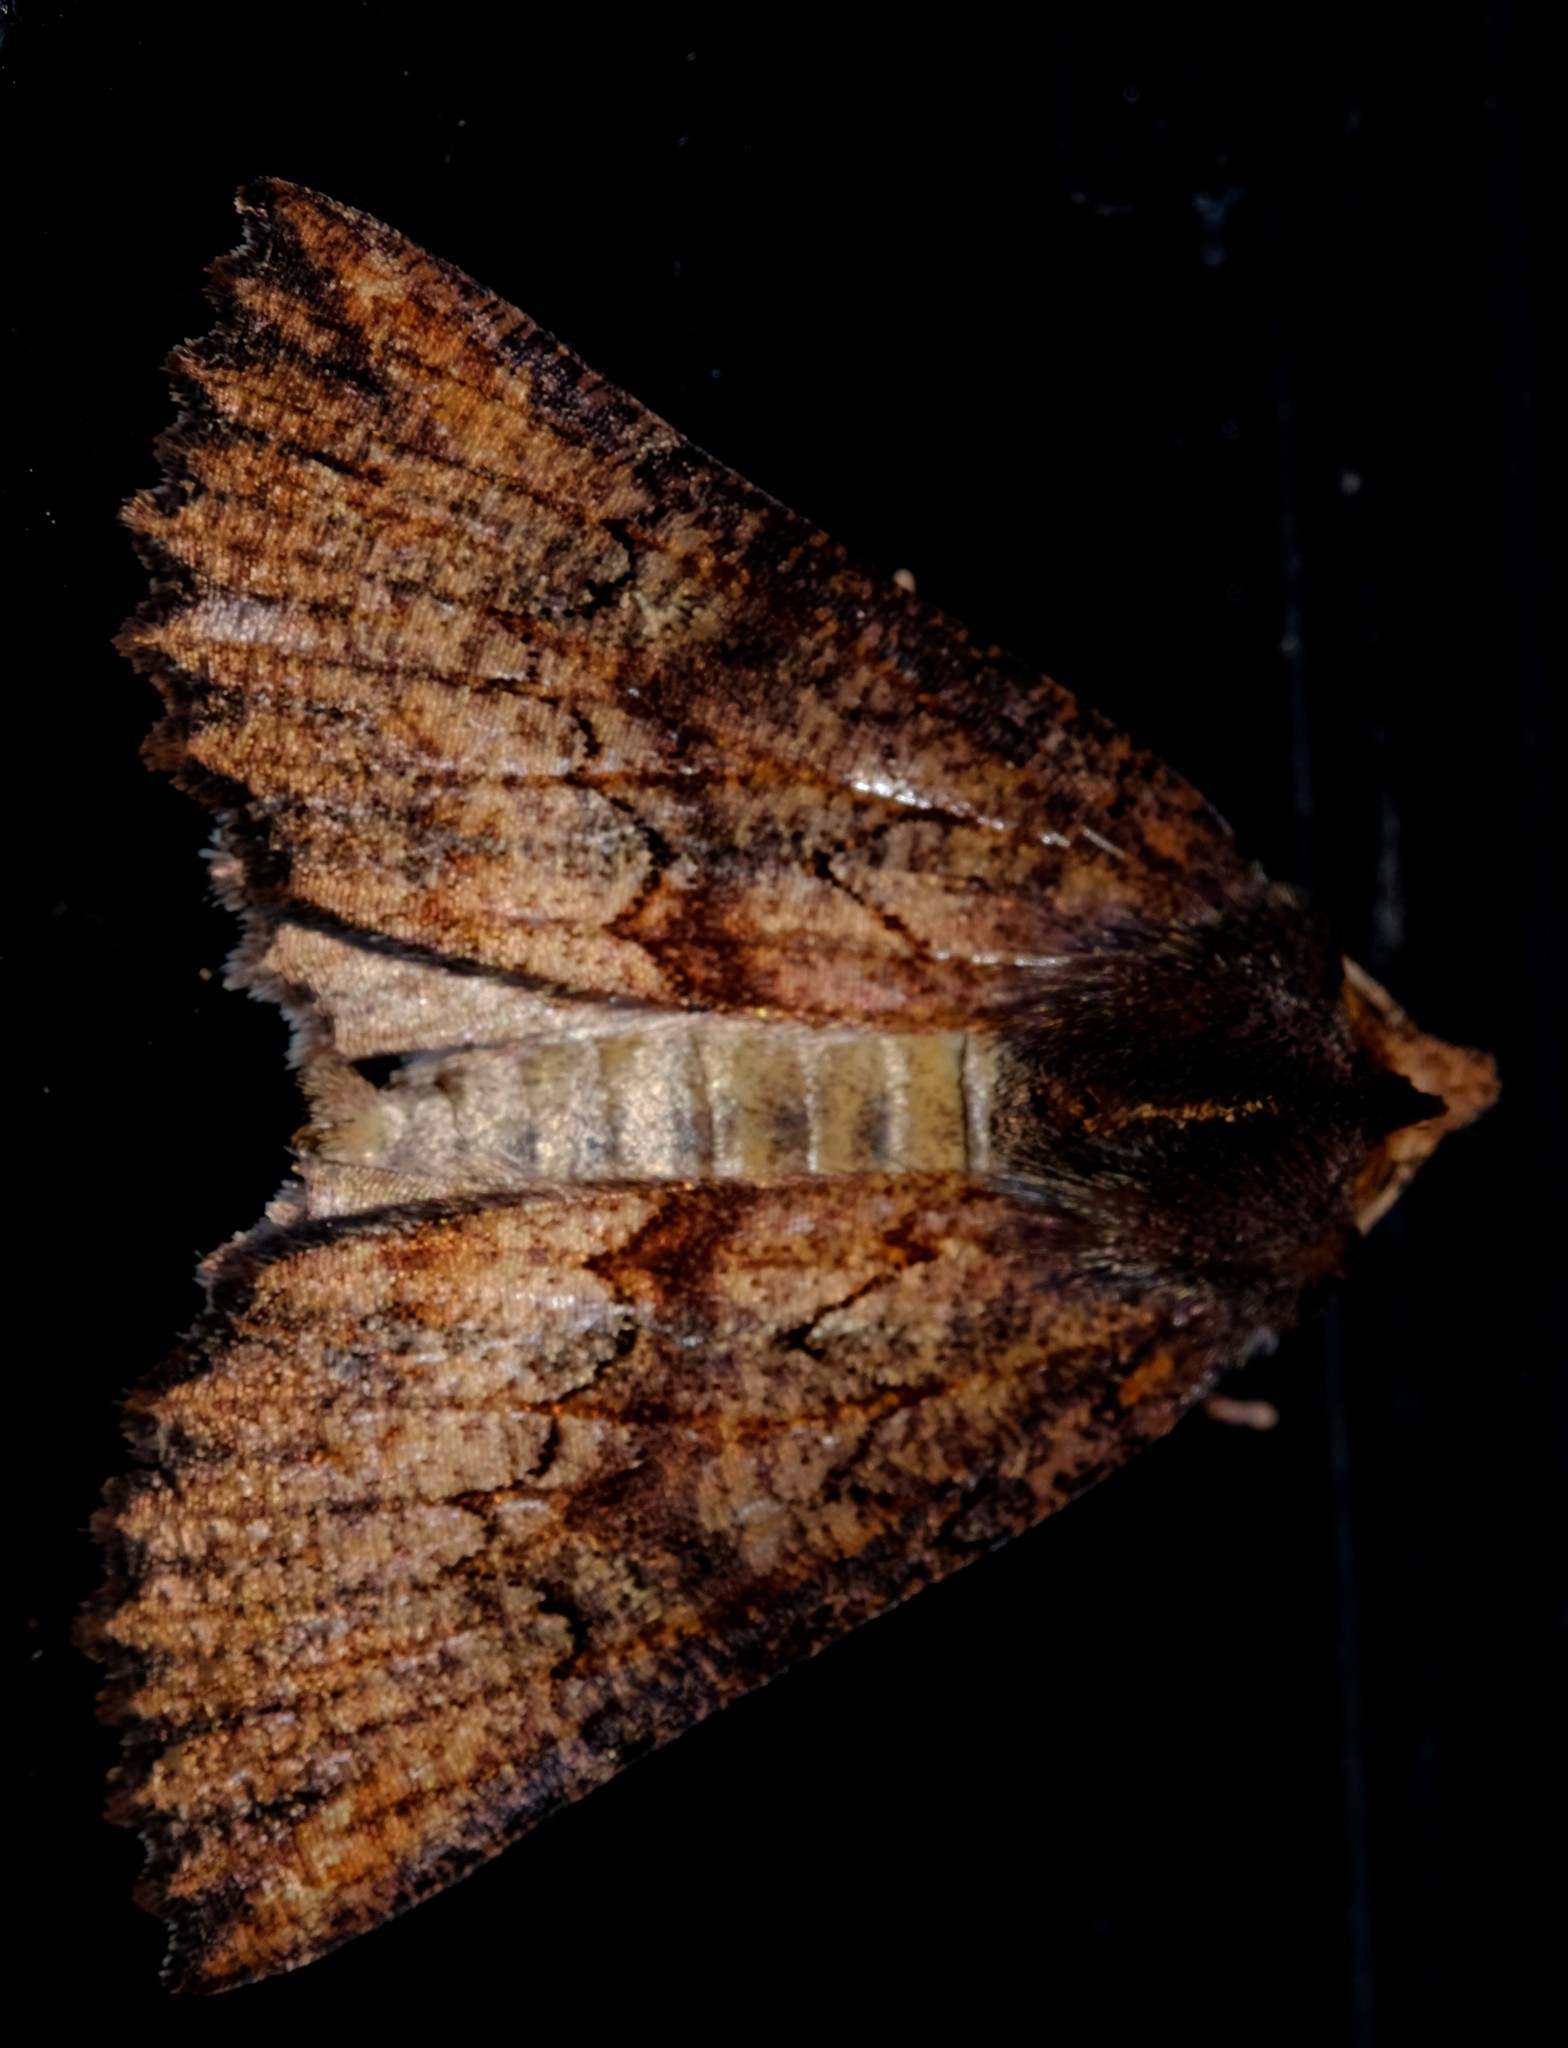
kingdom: Animalia
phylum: Arthropoda
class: Insecta
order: Lepidoptera
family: Geometridae
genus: Nisista
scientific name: Nisista serrata
